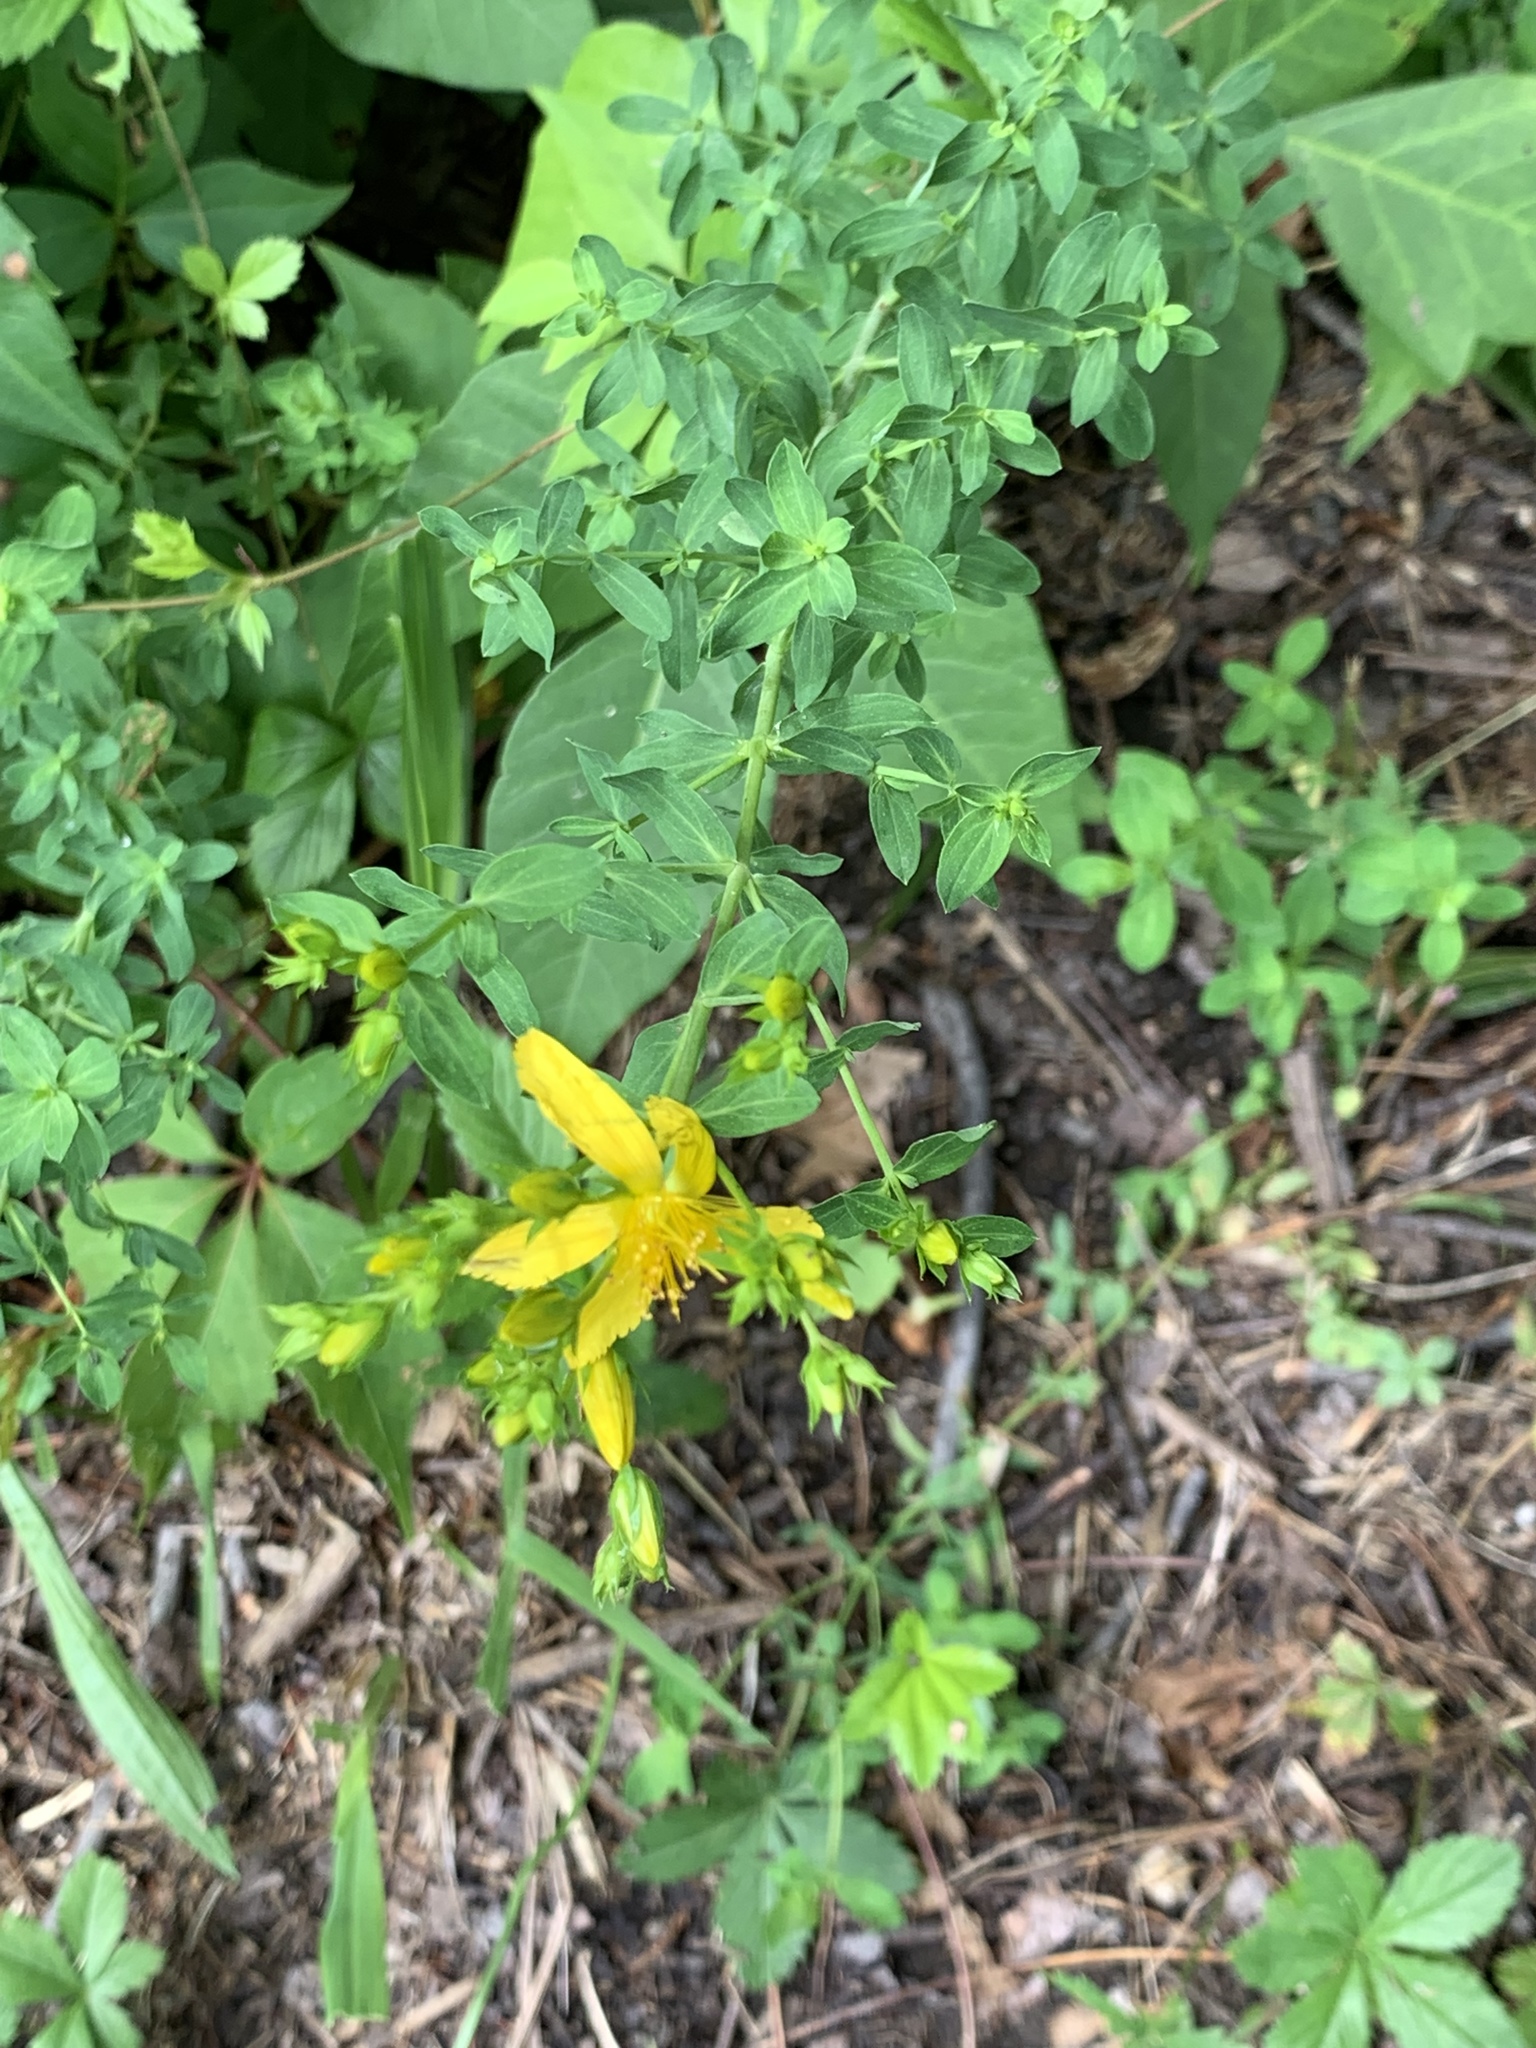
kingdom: Plantae
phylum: Tracheophyta
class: Magnoliopsida
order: Malpighiales
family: Hypericaceae
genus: Hypericum
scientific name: Hypericum perforatum
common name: Common st. johnswort
